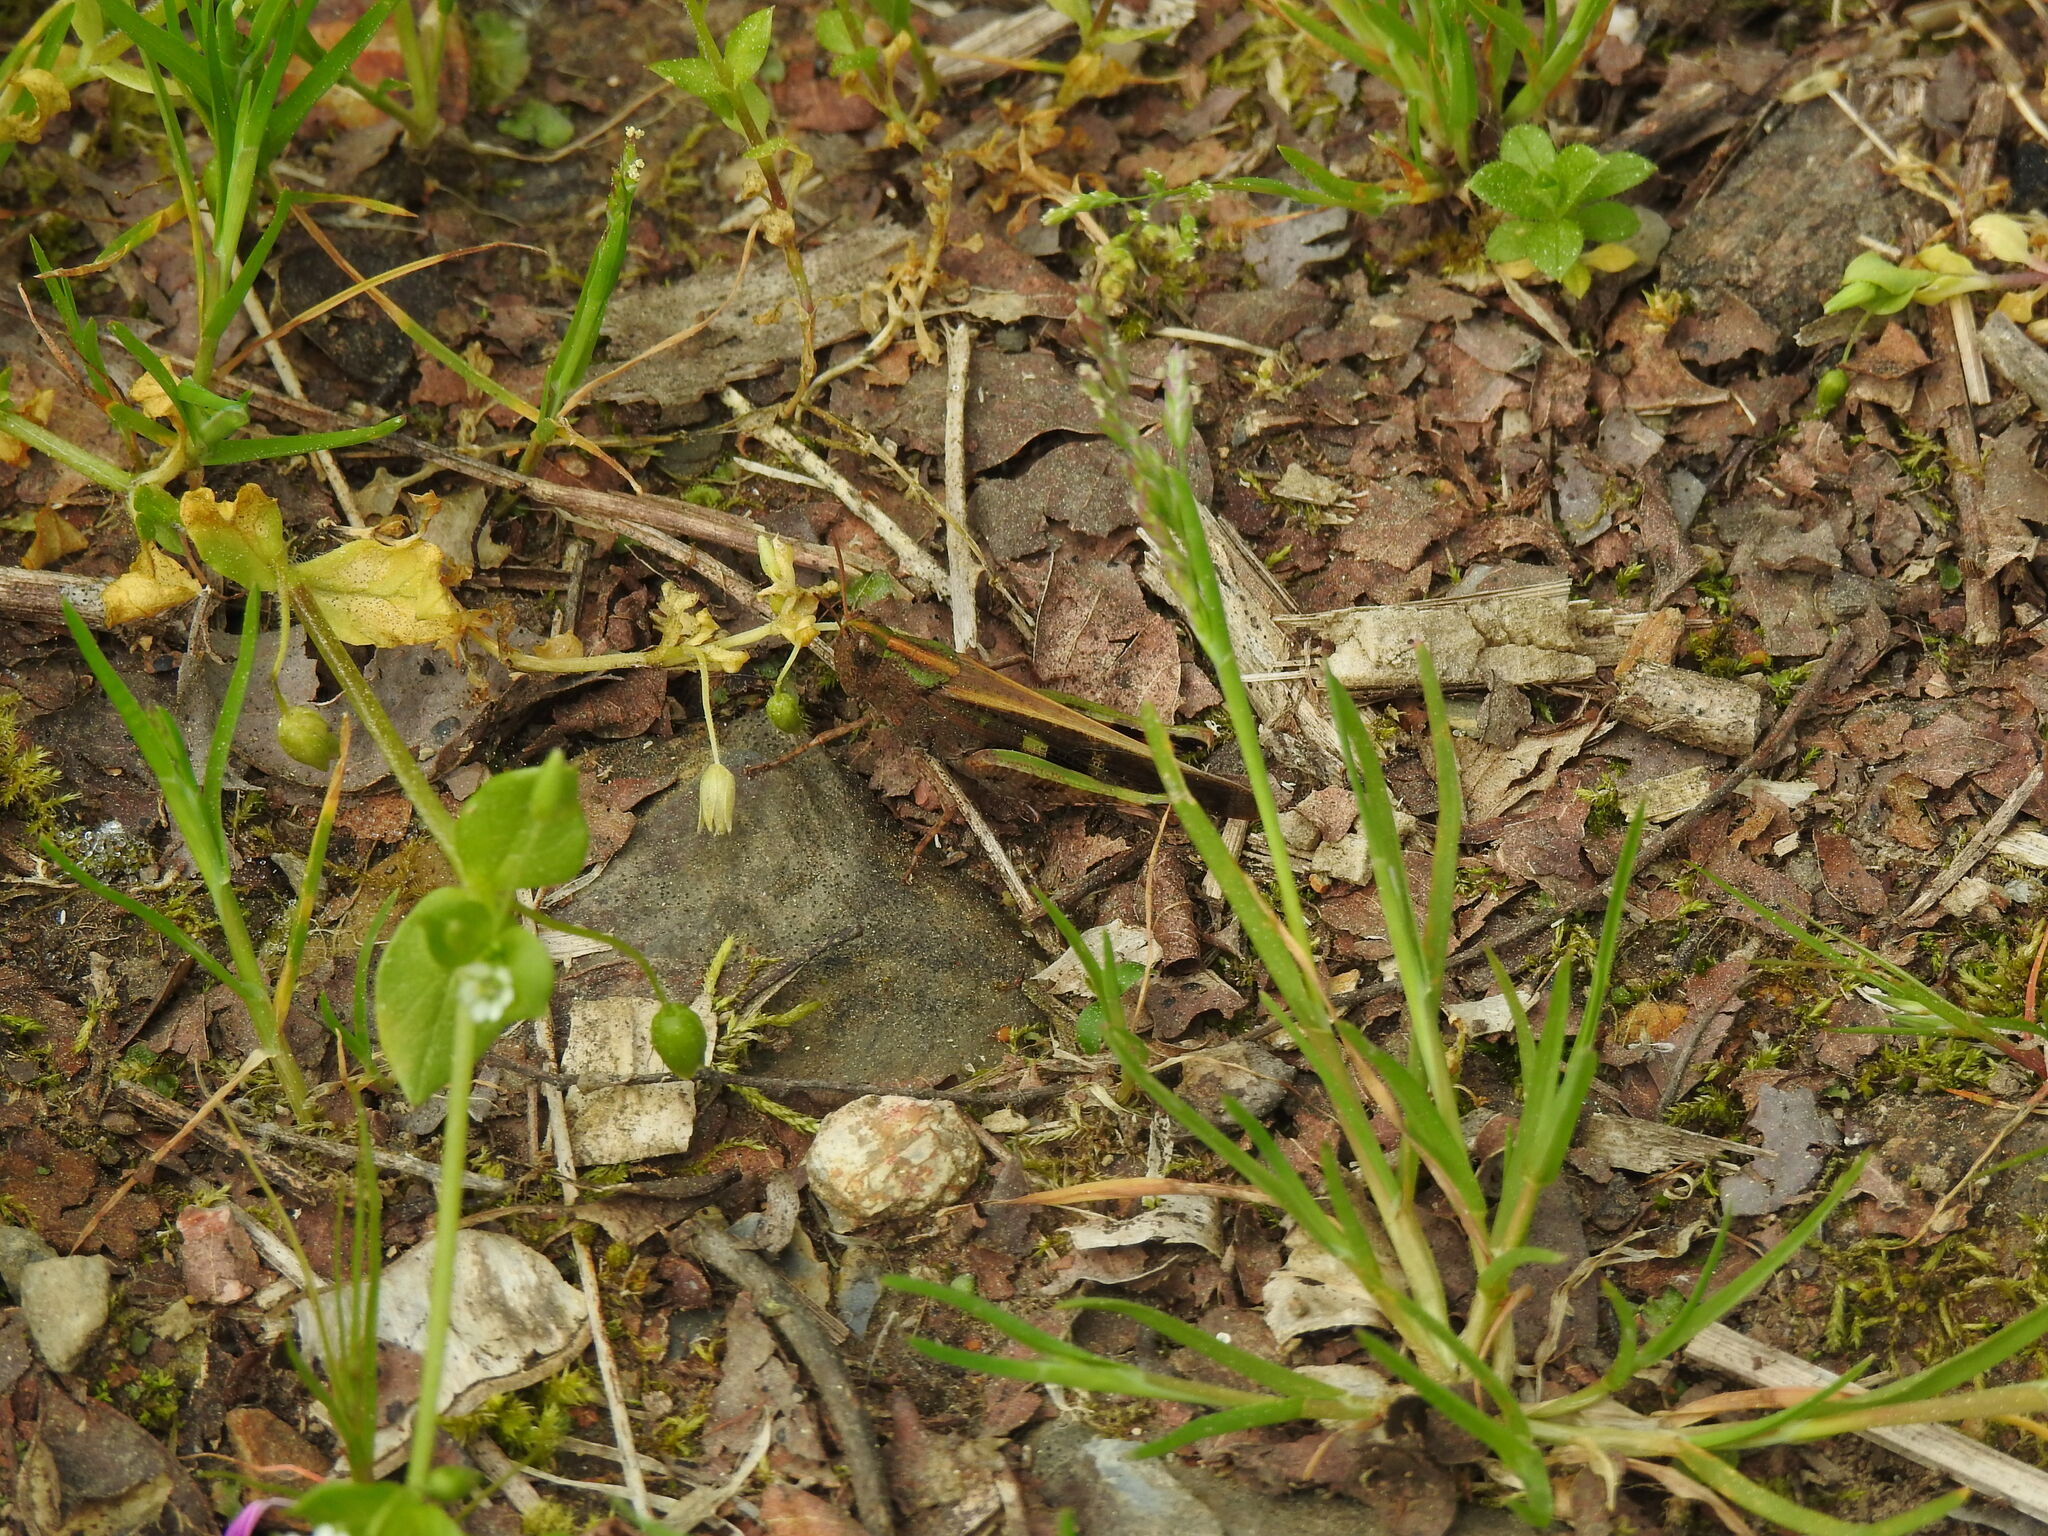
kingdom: Animalia
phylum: Arthropoda
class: Insecta
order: Orthoptera
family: Acrididae
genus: Aiolopus
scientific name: Aiolopus strepens
